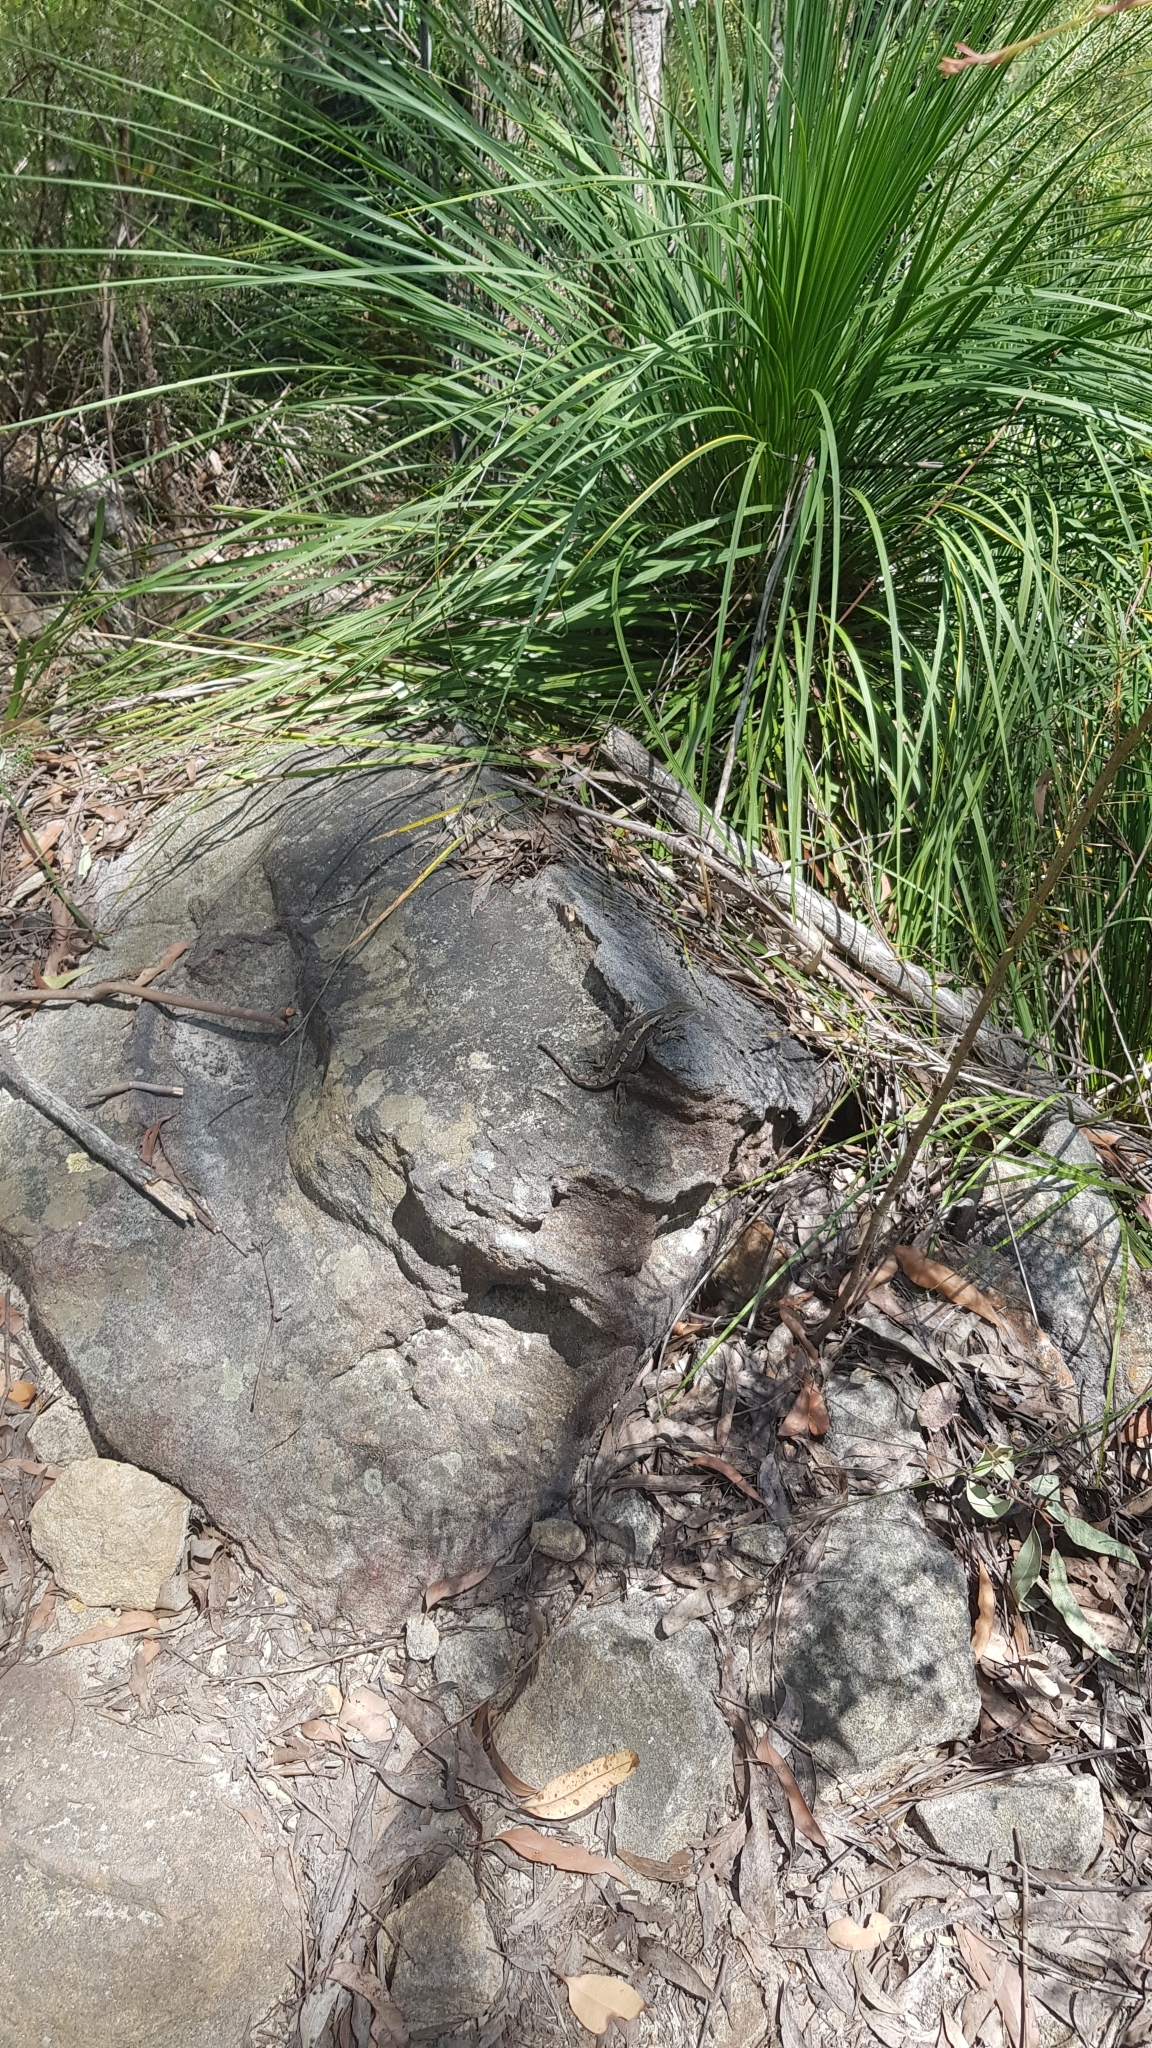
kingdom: Animalia
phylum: Chordata
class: Squamata
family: Agamidae
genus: Amphibolurus
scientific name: Amphibolurus muricatus
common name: Jacky lizard
